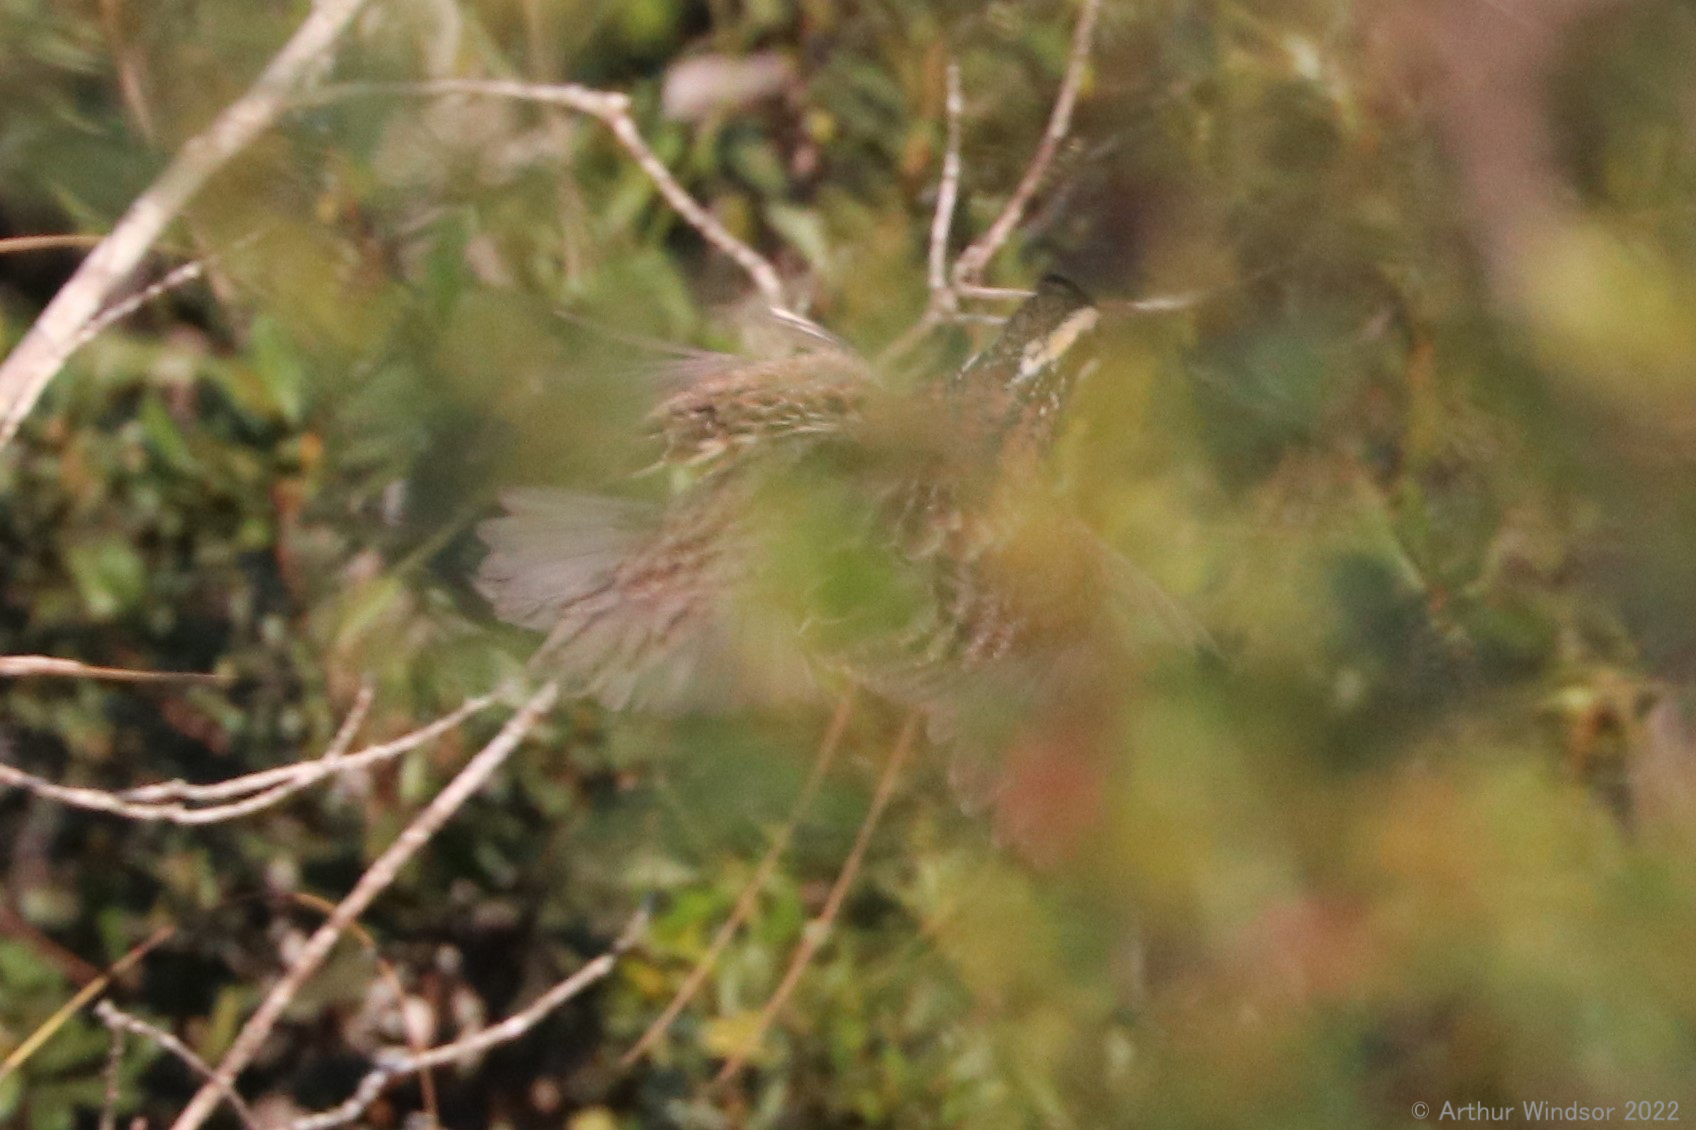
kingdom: Animalia
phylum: Chordata
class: Aves
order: Galliformes
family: Odontophoridae
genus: Colinus
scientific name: Colinus virginianus
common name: Northern bobwhite
